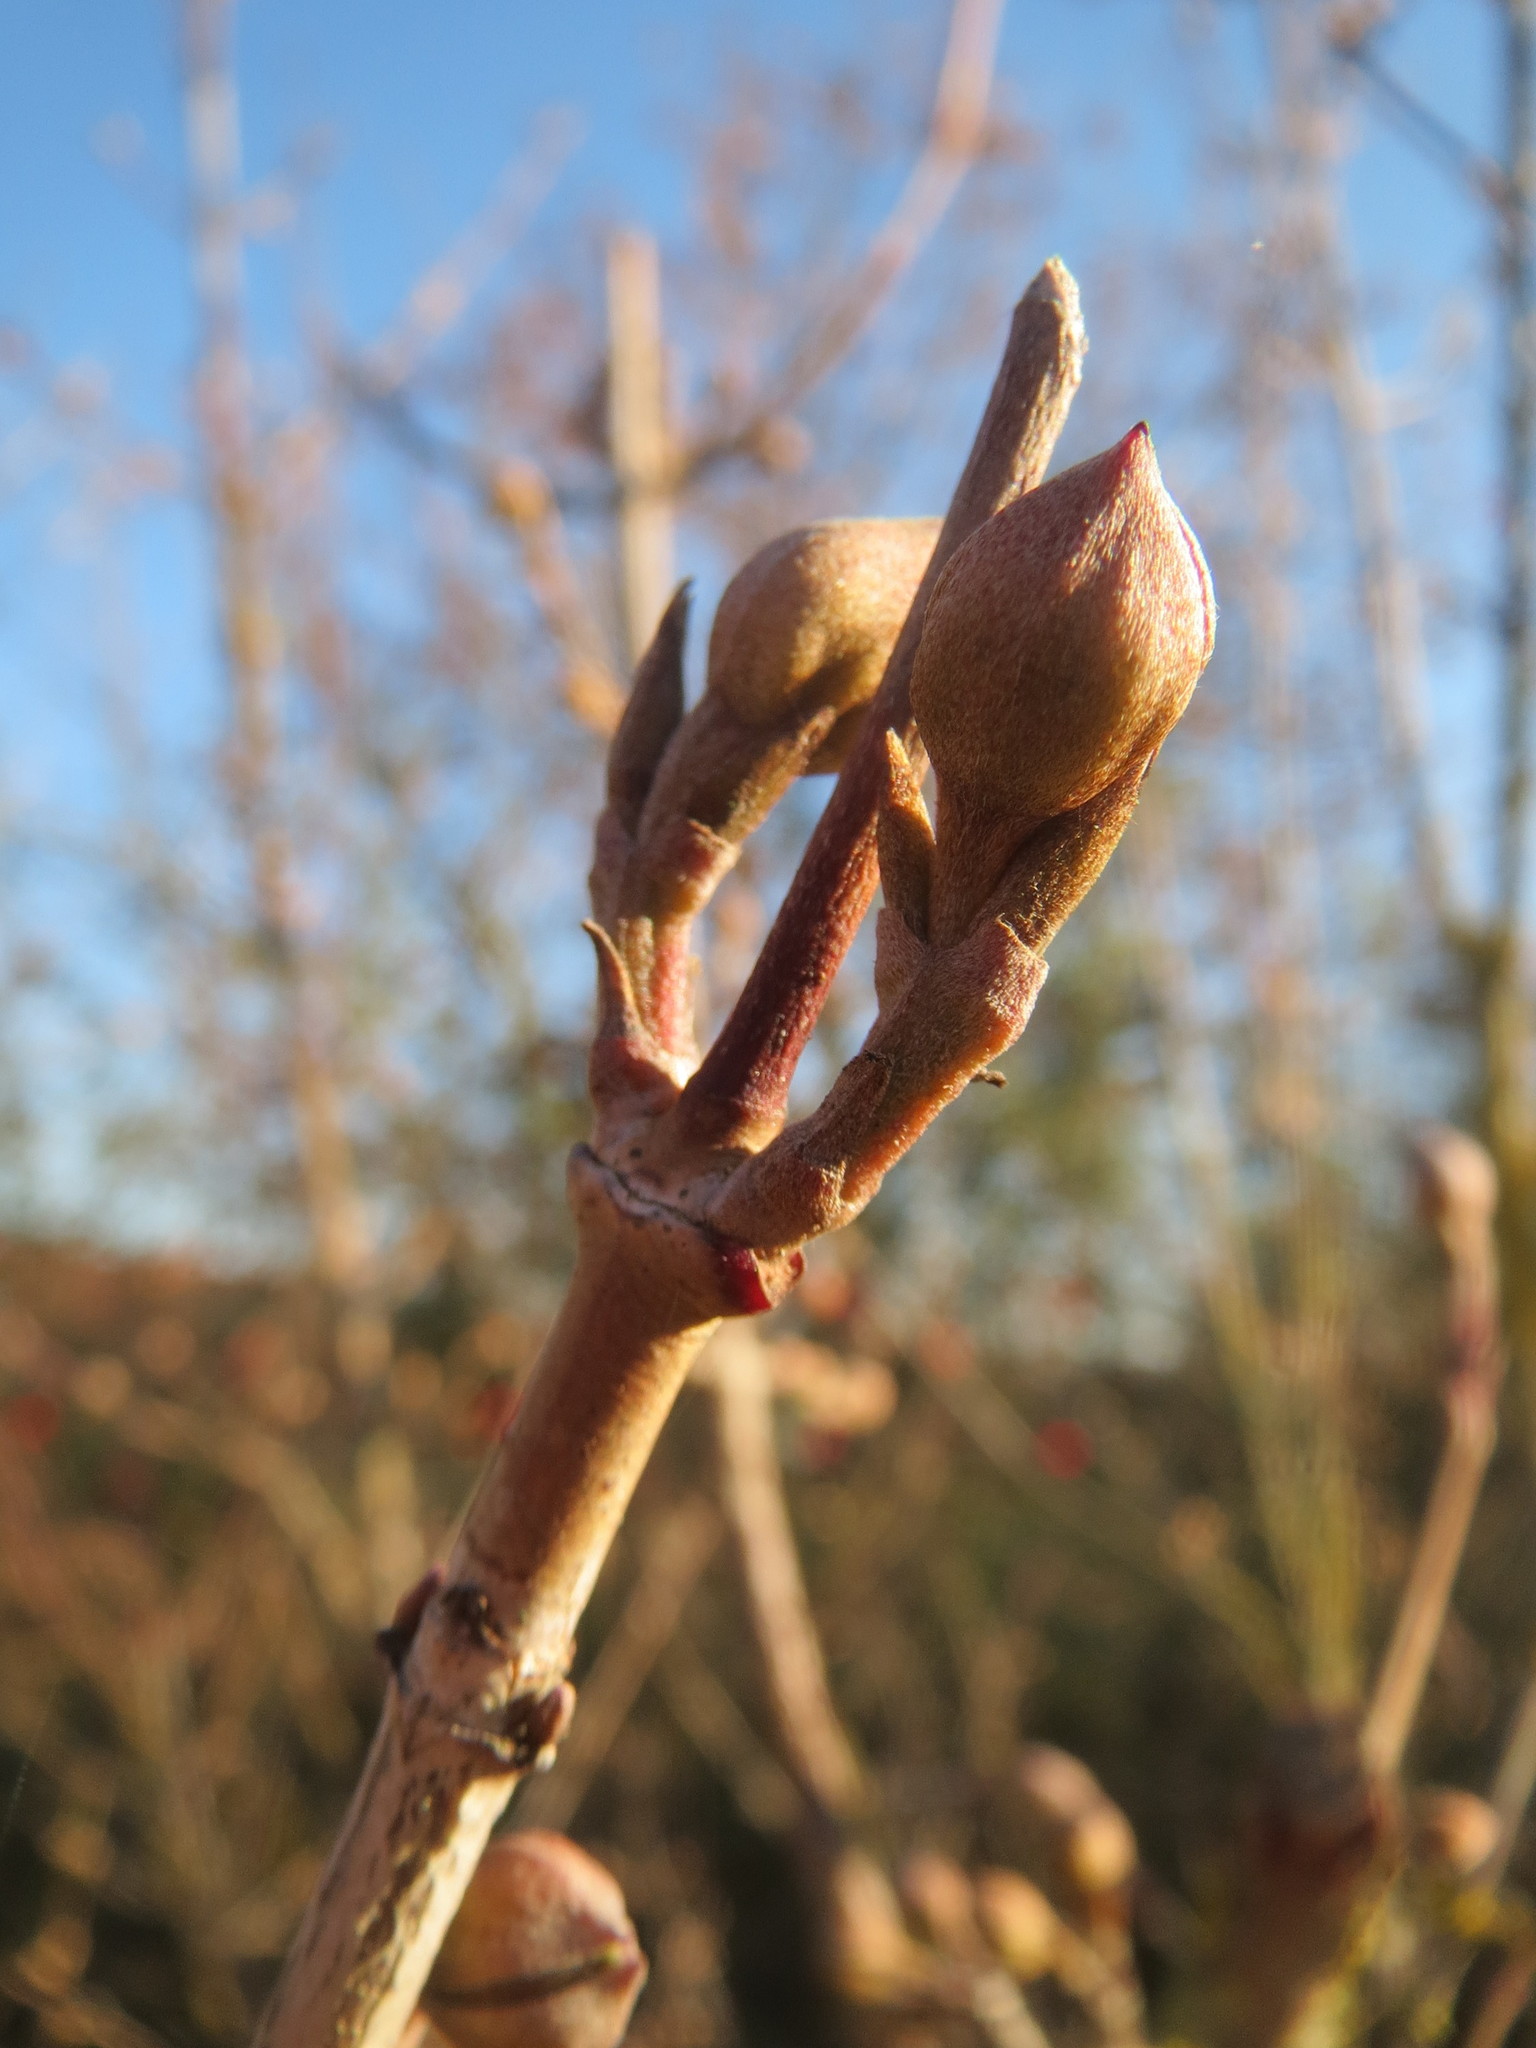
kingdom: Plantae
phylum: Tracheophyta
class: Magnoliopsida
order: Cornales
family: Cornaceae
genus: Cornus
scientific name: Cornus mas
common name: Cornelian-cherry
